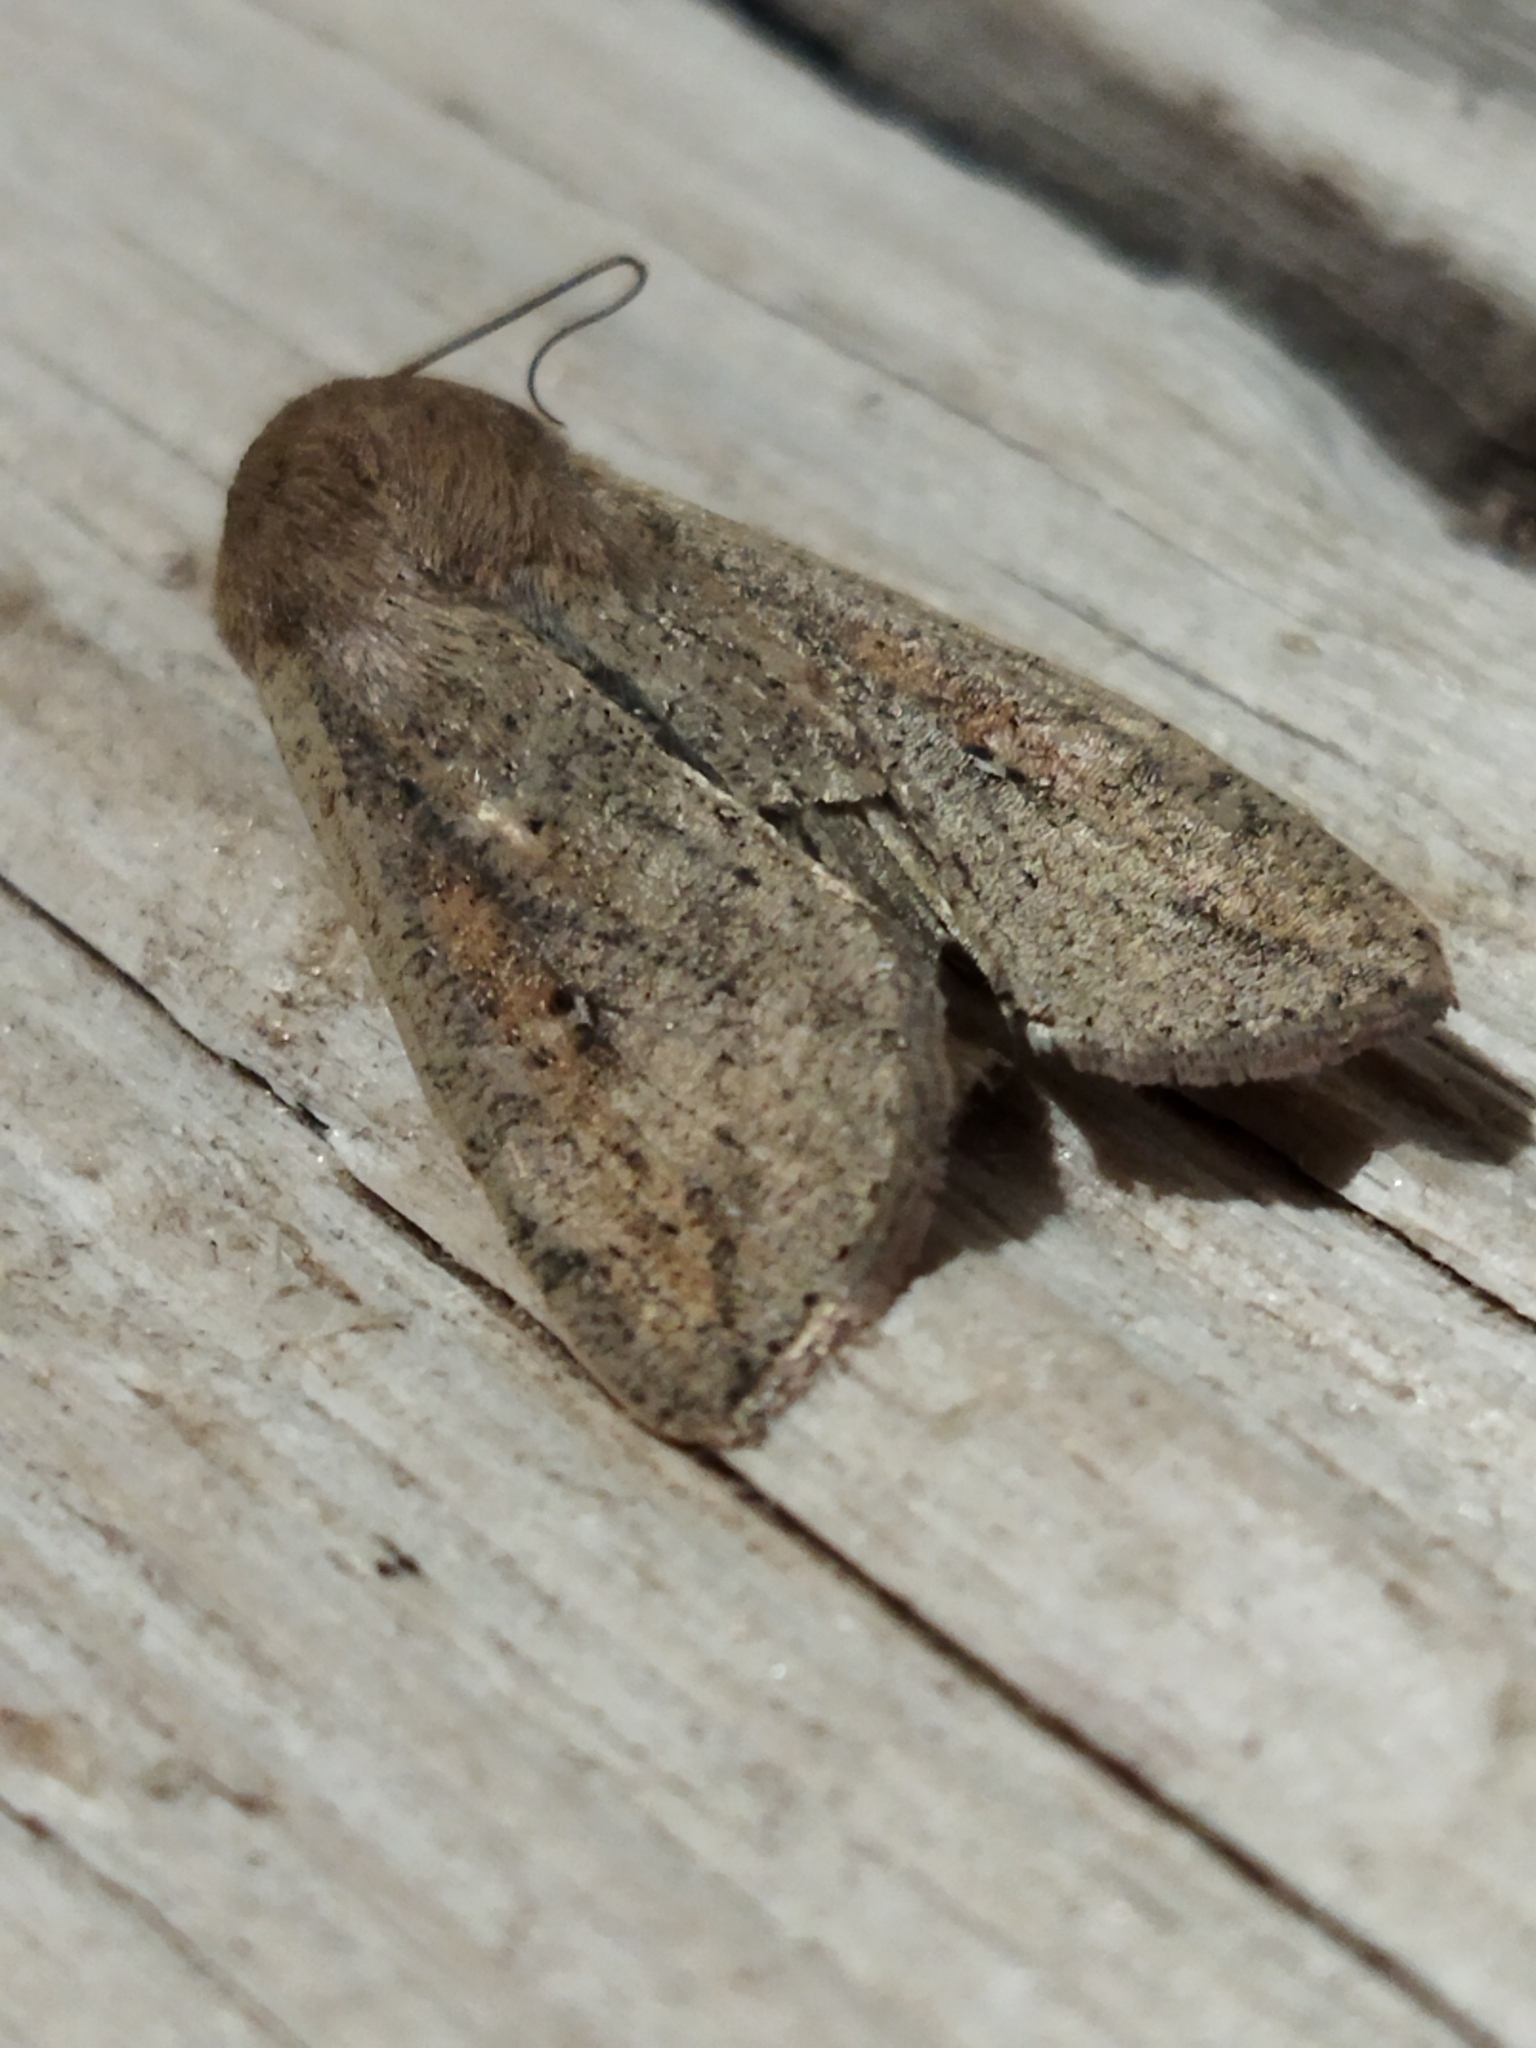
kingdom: Animalia
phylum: Arthropoda
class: Insecta
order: Lepidoptera
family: Noctuidae
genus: Mythimna
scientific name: Mythimna unipuncta
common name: White-speck
